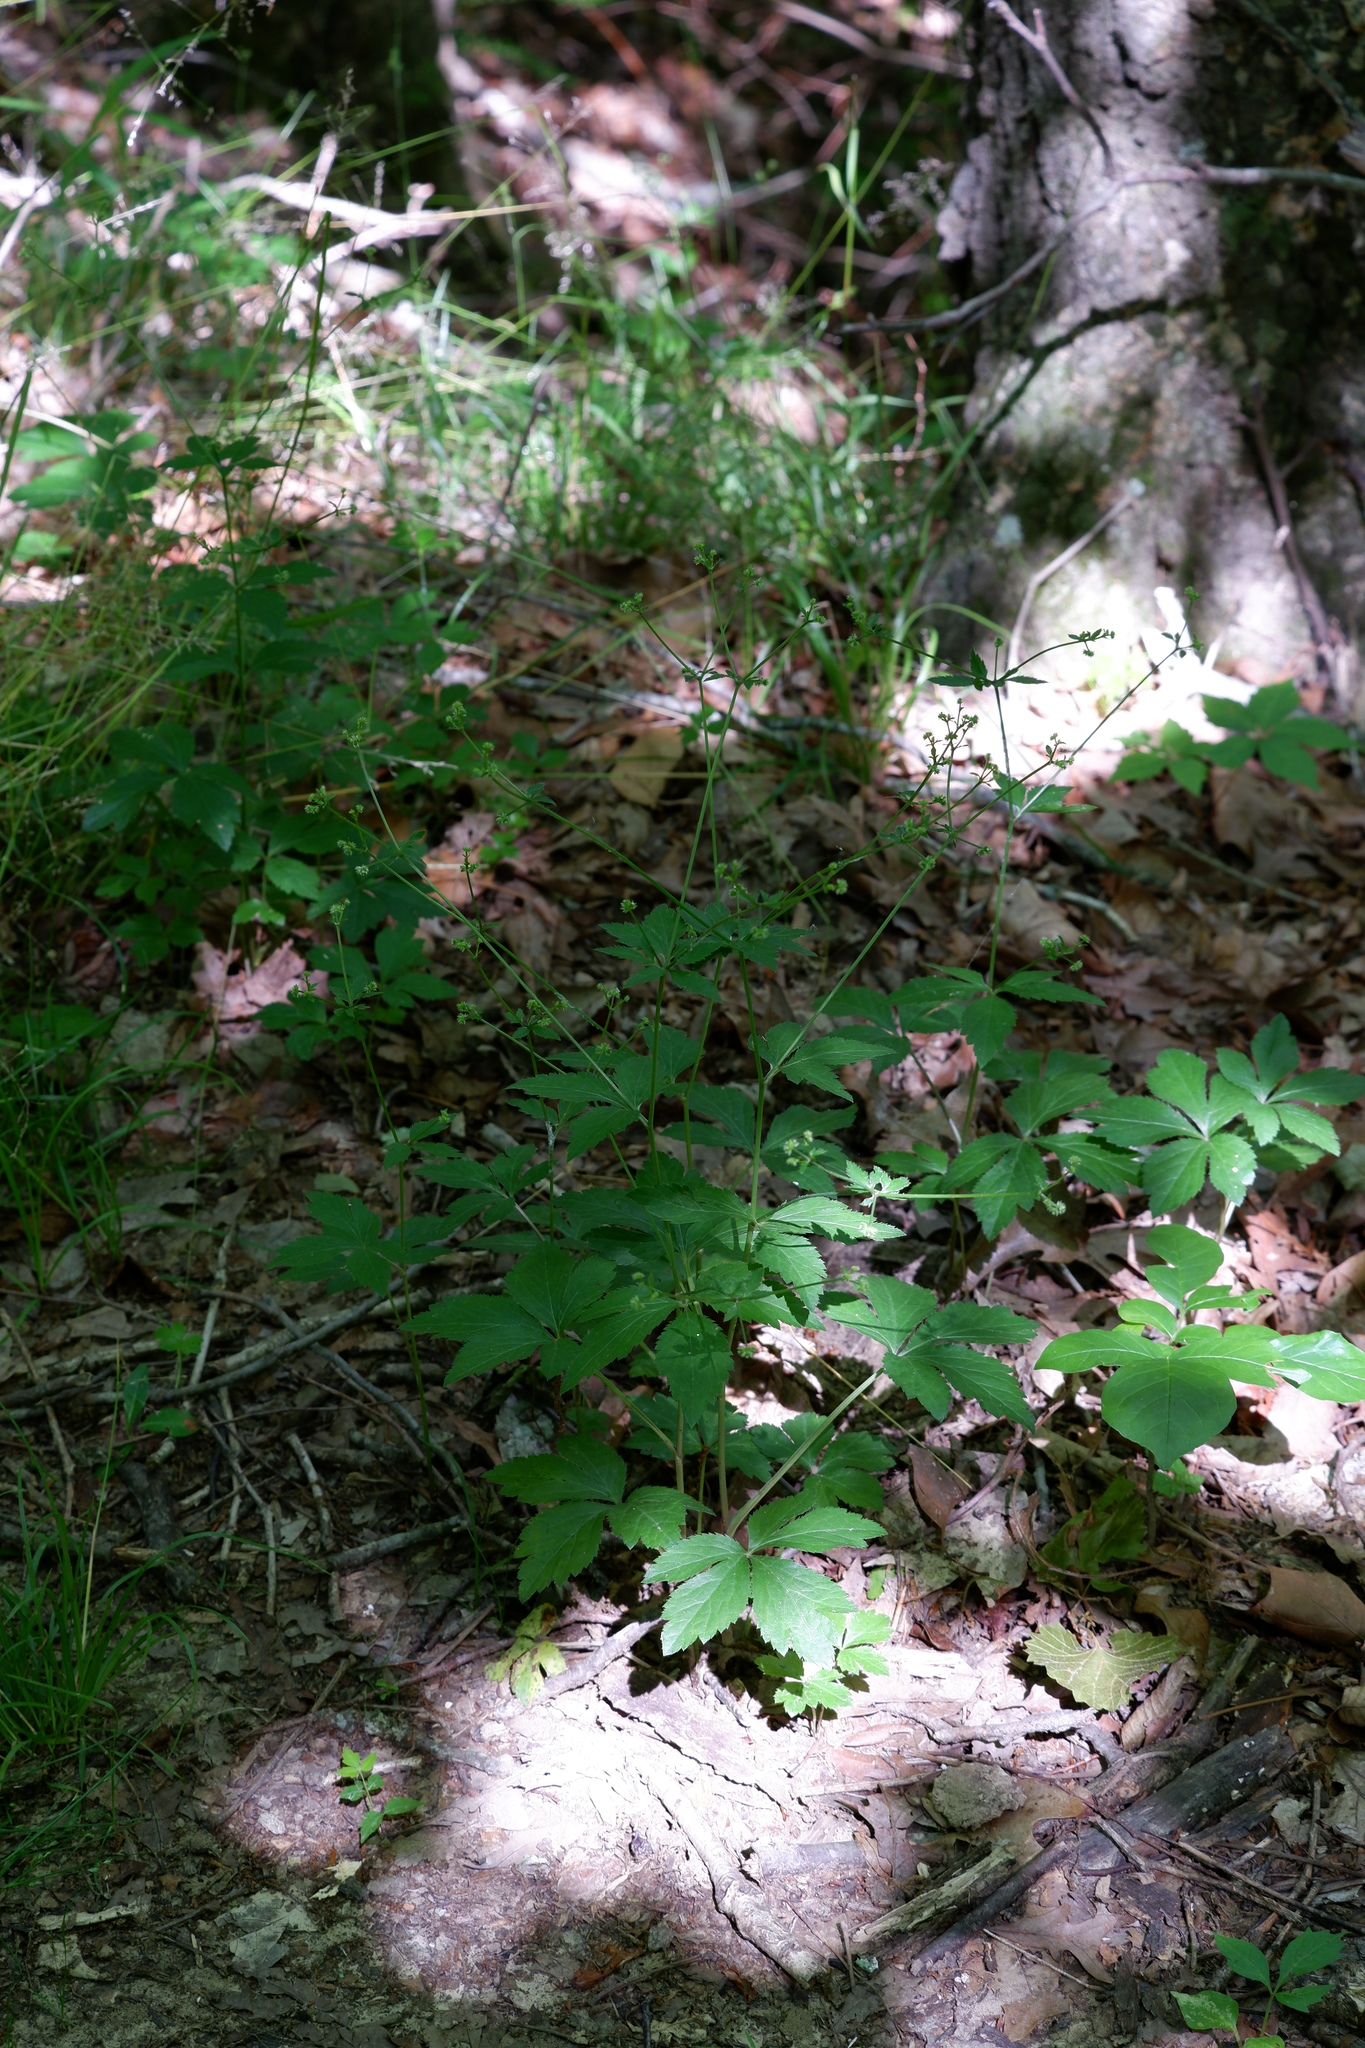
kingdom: Plantae
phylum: Tracheophyta
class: Magnoliopsida
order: Apiales
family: Apiaceae
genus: Sanicula
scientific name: Sanicula canadensis
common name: Canada sanicle
